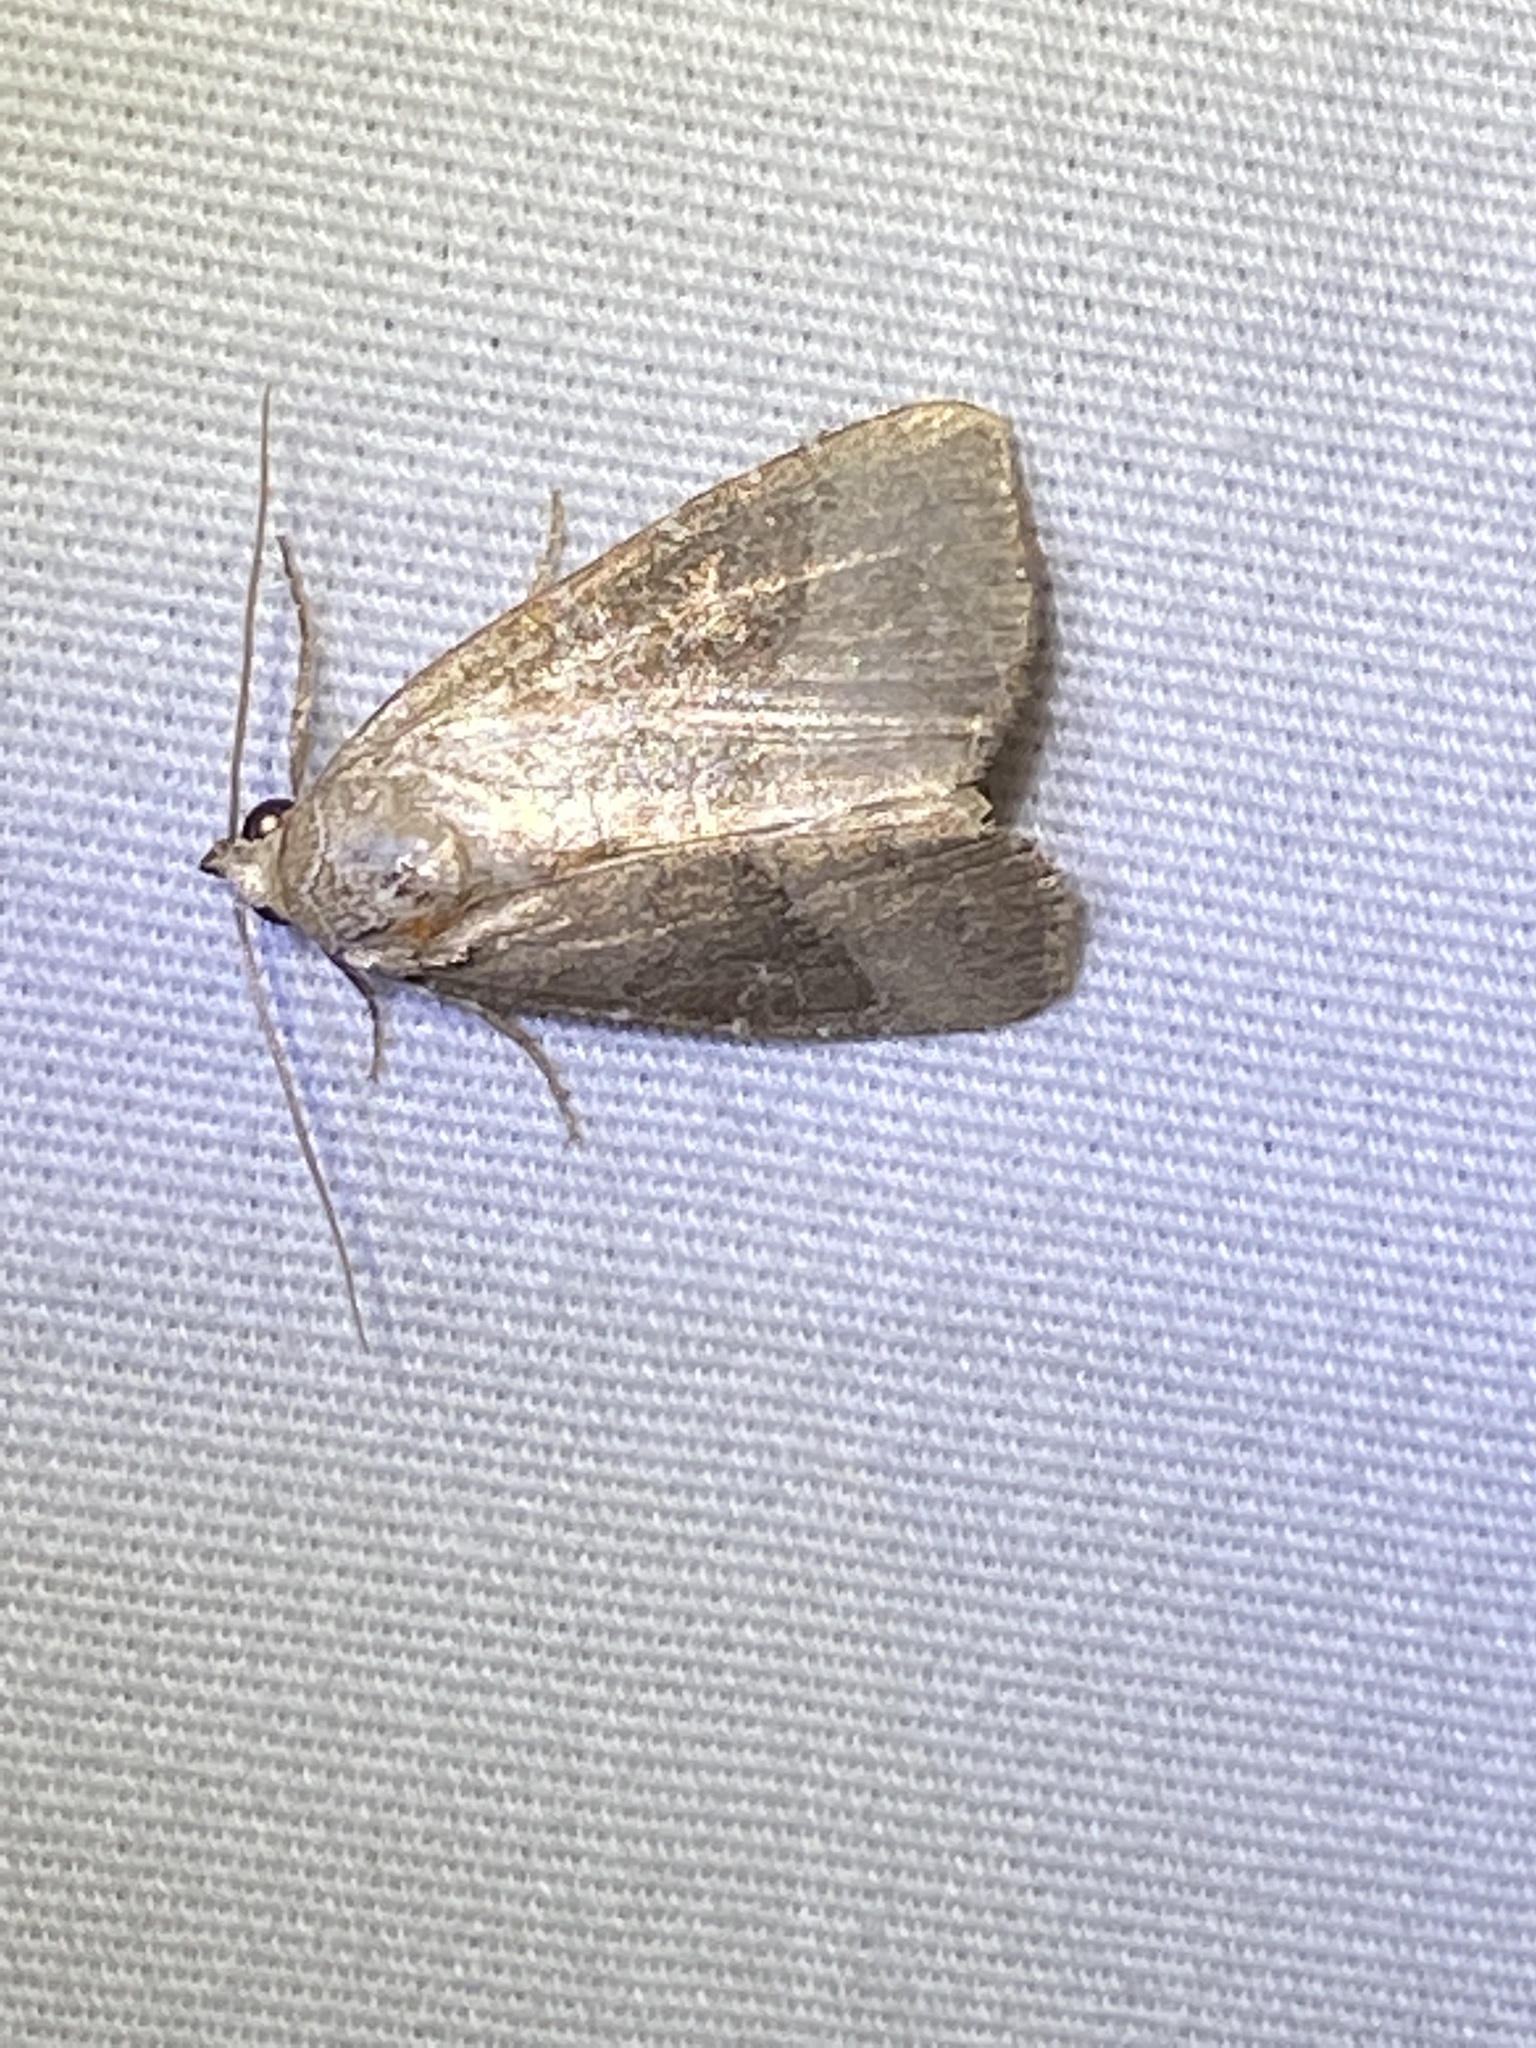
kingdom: Animalia
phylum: Arthropoda
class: Insecta
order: Lepidoptera
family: Noctuidae
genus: Ogdoconta
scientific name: Ogdoconta cinereola
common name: Common pinkband
